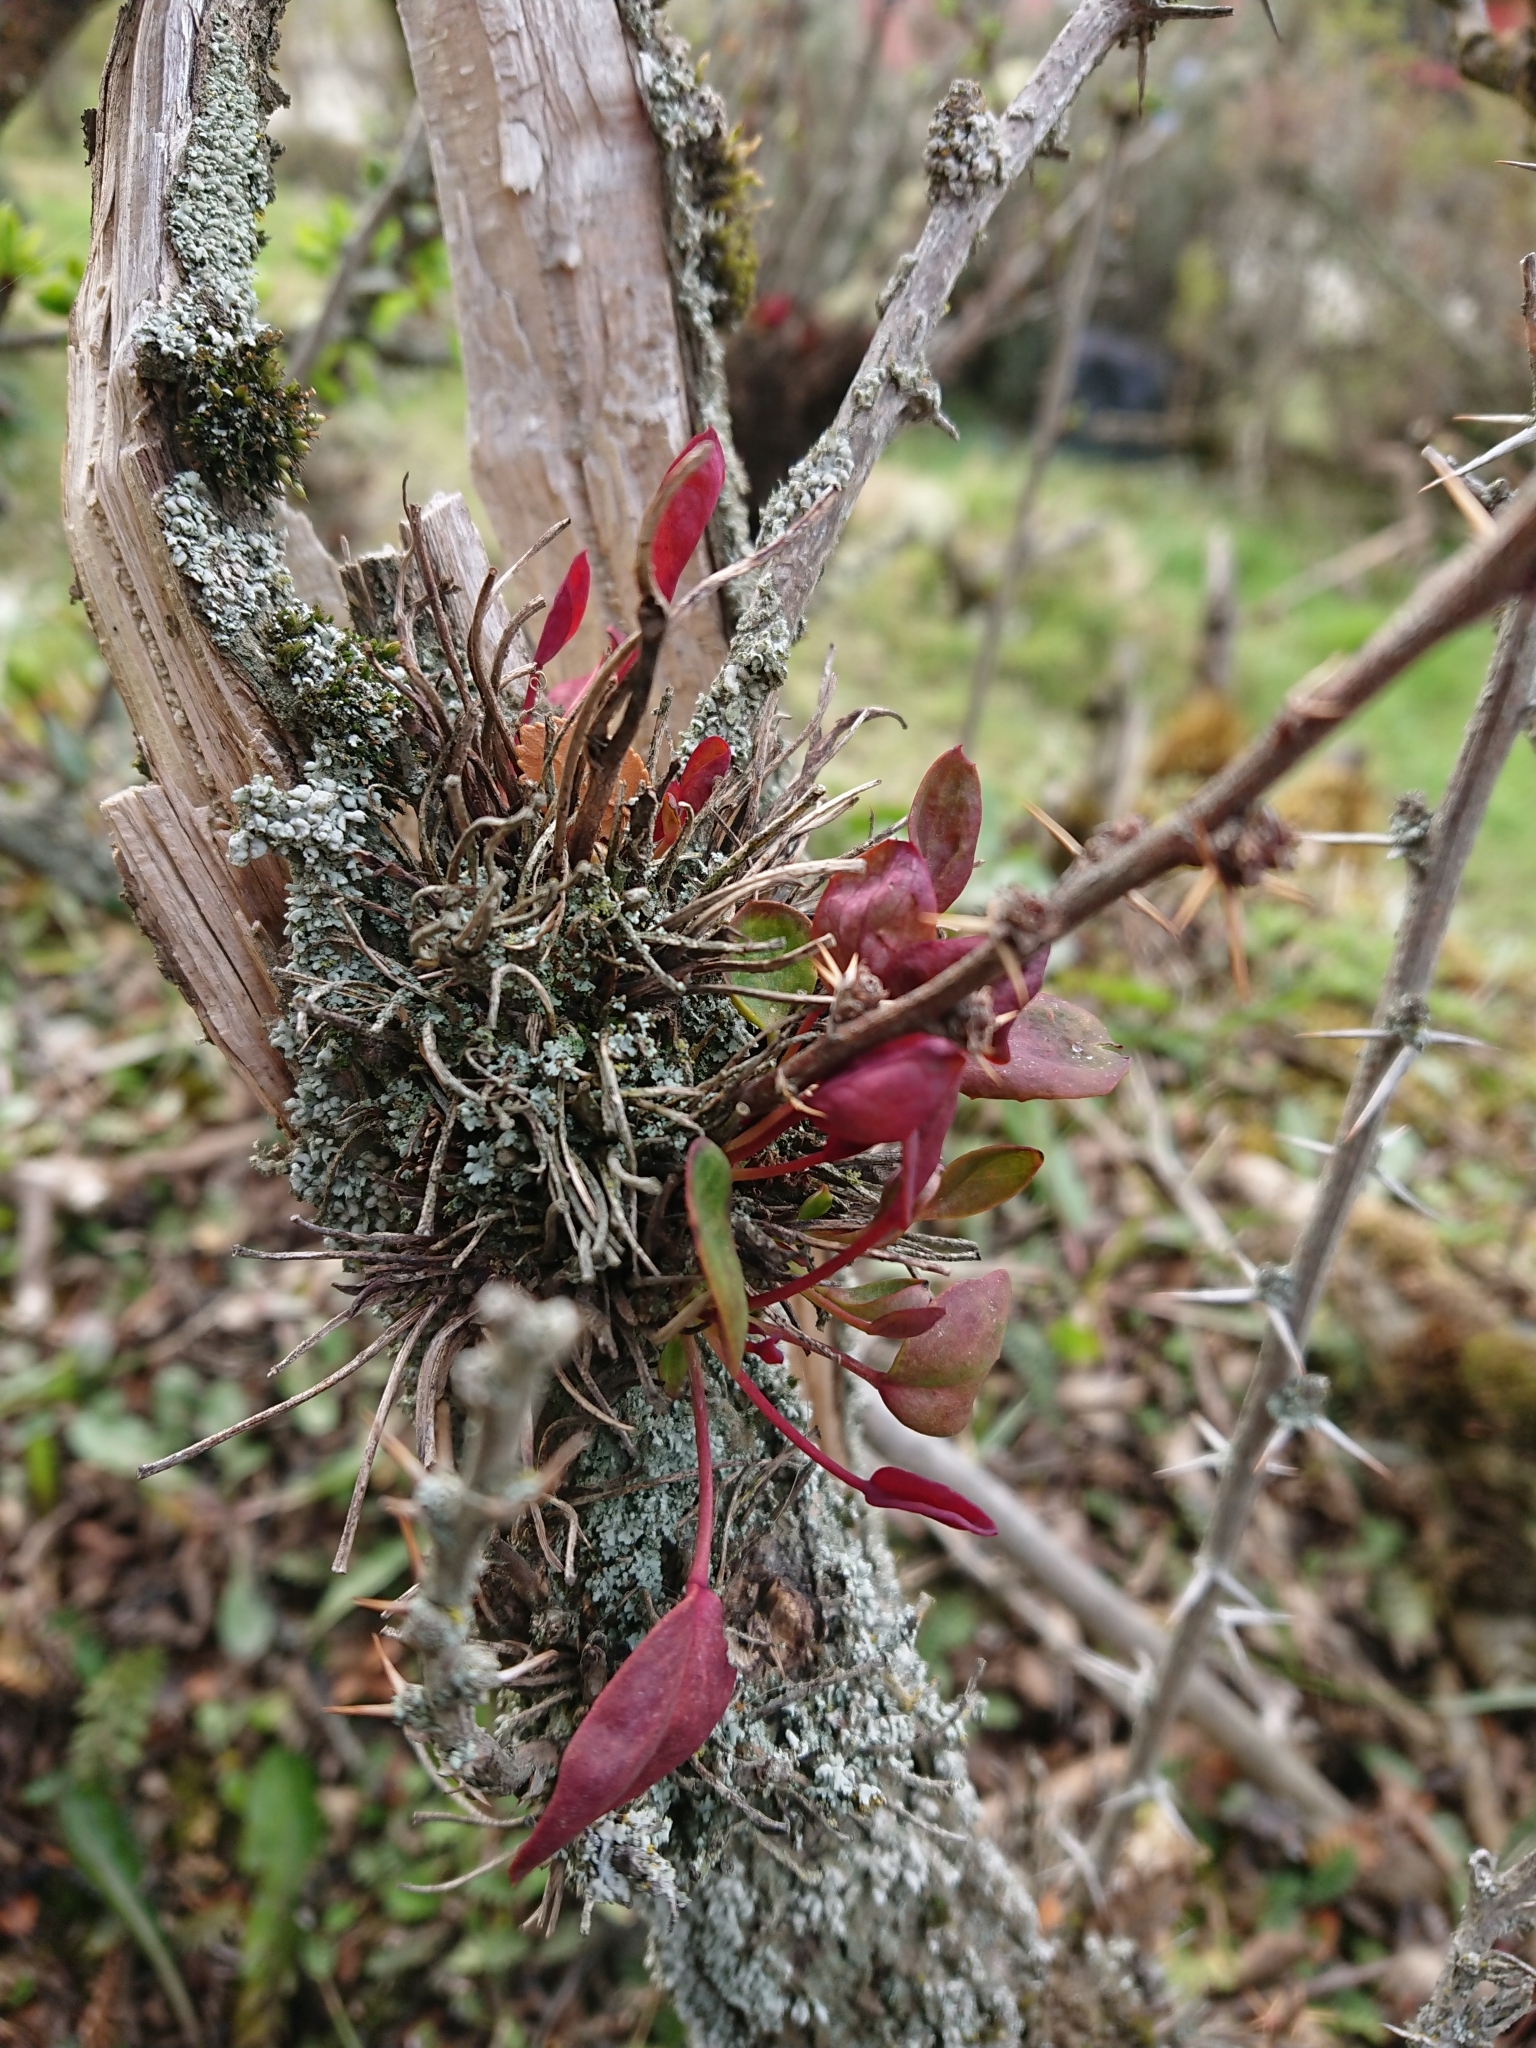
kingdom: Fungi
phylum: Basidiomycota
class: Pucciniomycetes
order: Pucciniales
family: Pucciniaceae
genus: Puccinia
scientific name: Puccinia magellanica
